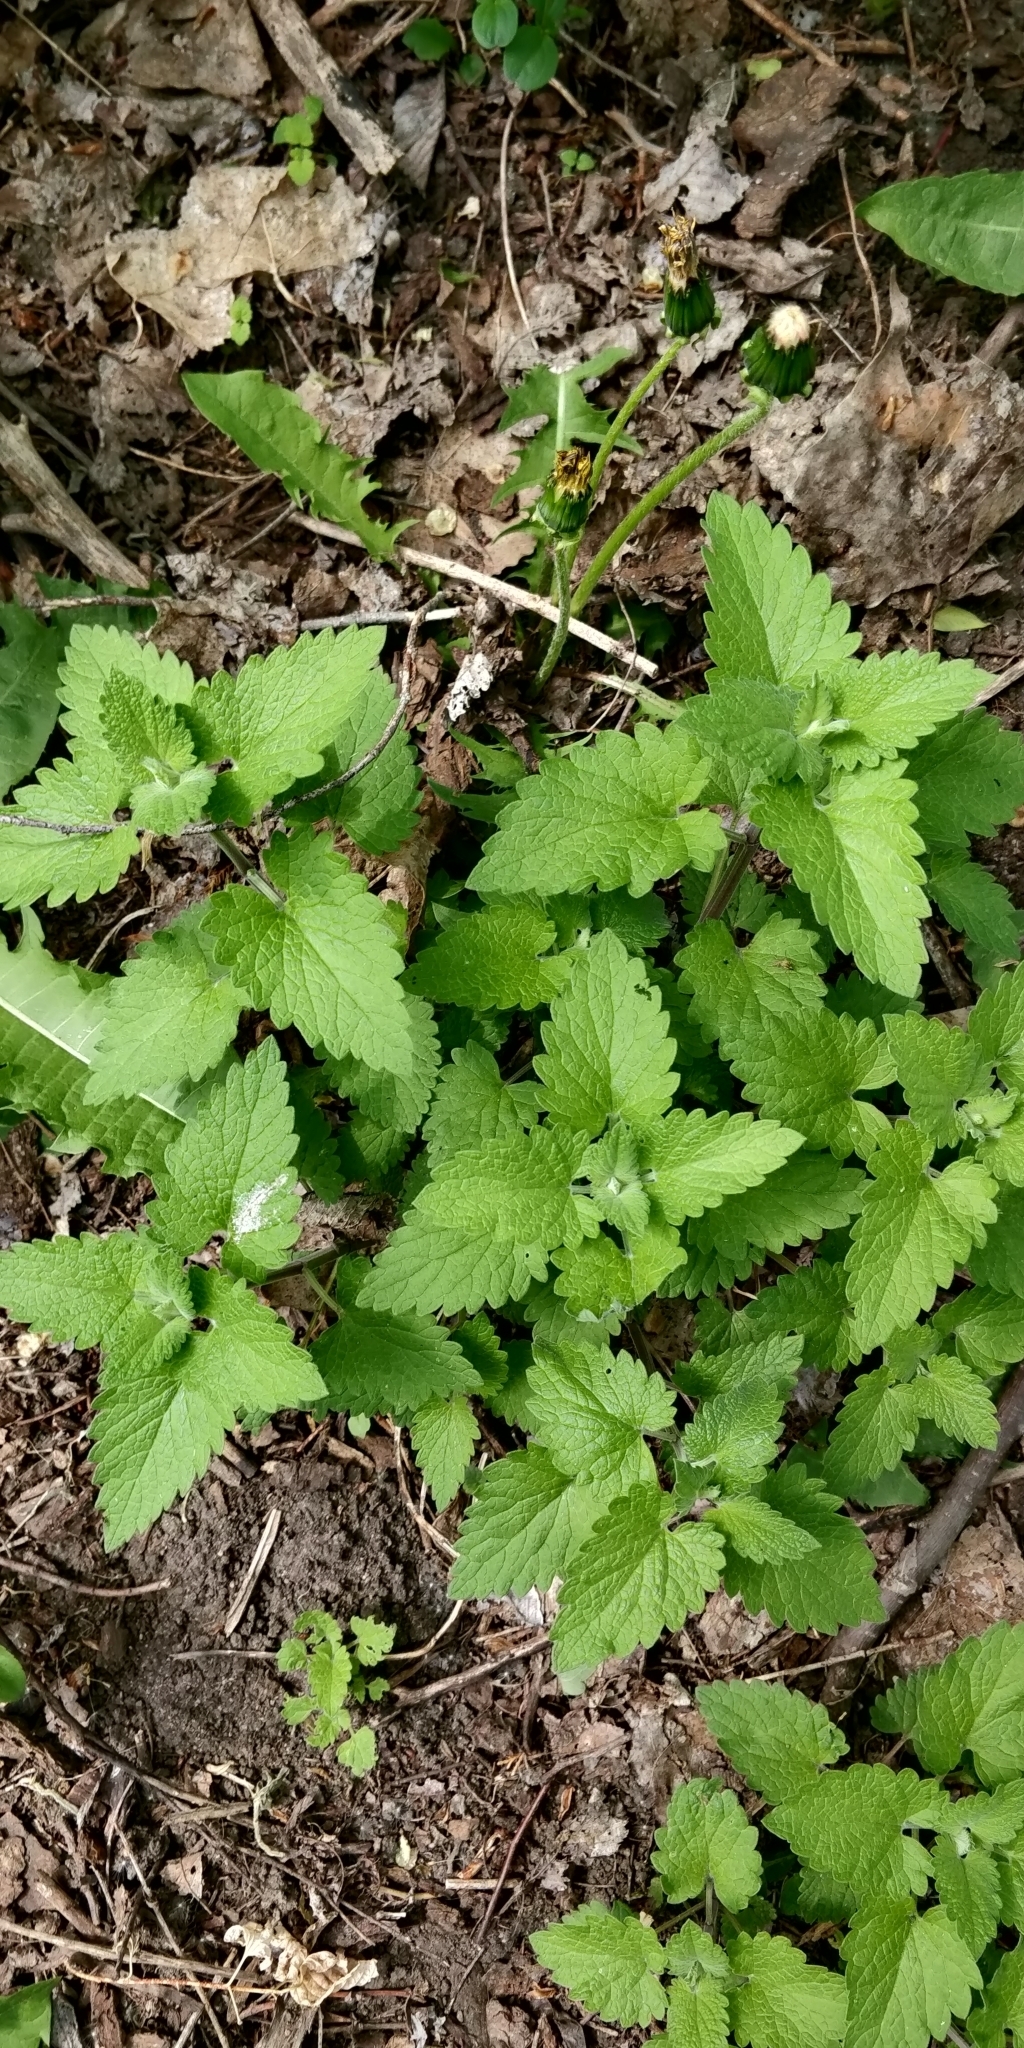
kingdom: Plantae
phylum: Tracheophyta
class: Magnoliopsida
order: Lamiales
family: Lamiaceae
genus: Nepeta
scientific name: Nepeta cataria
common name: Catnip
